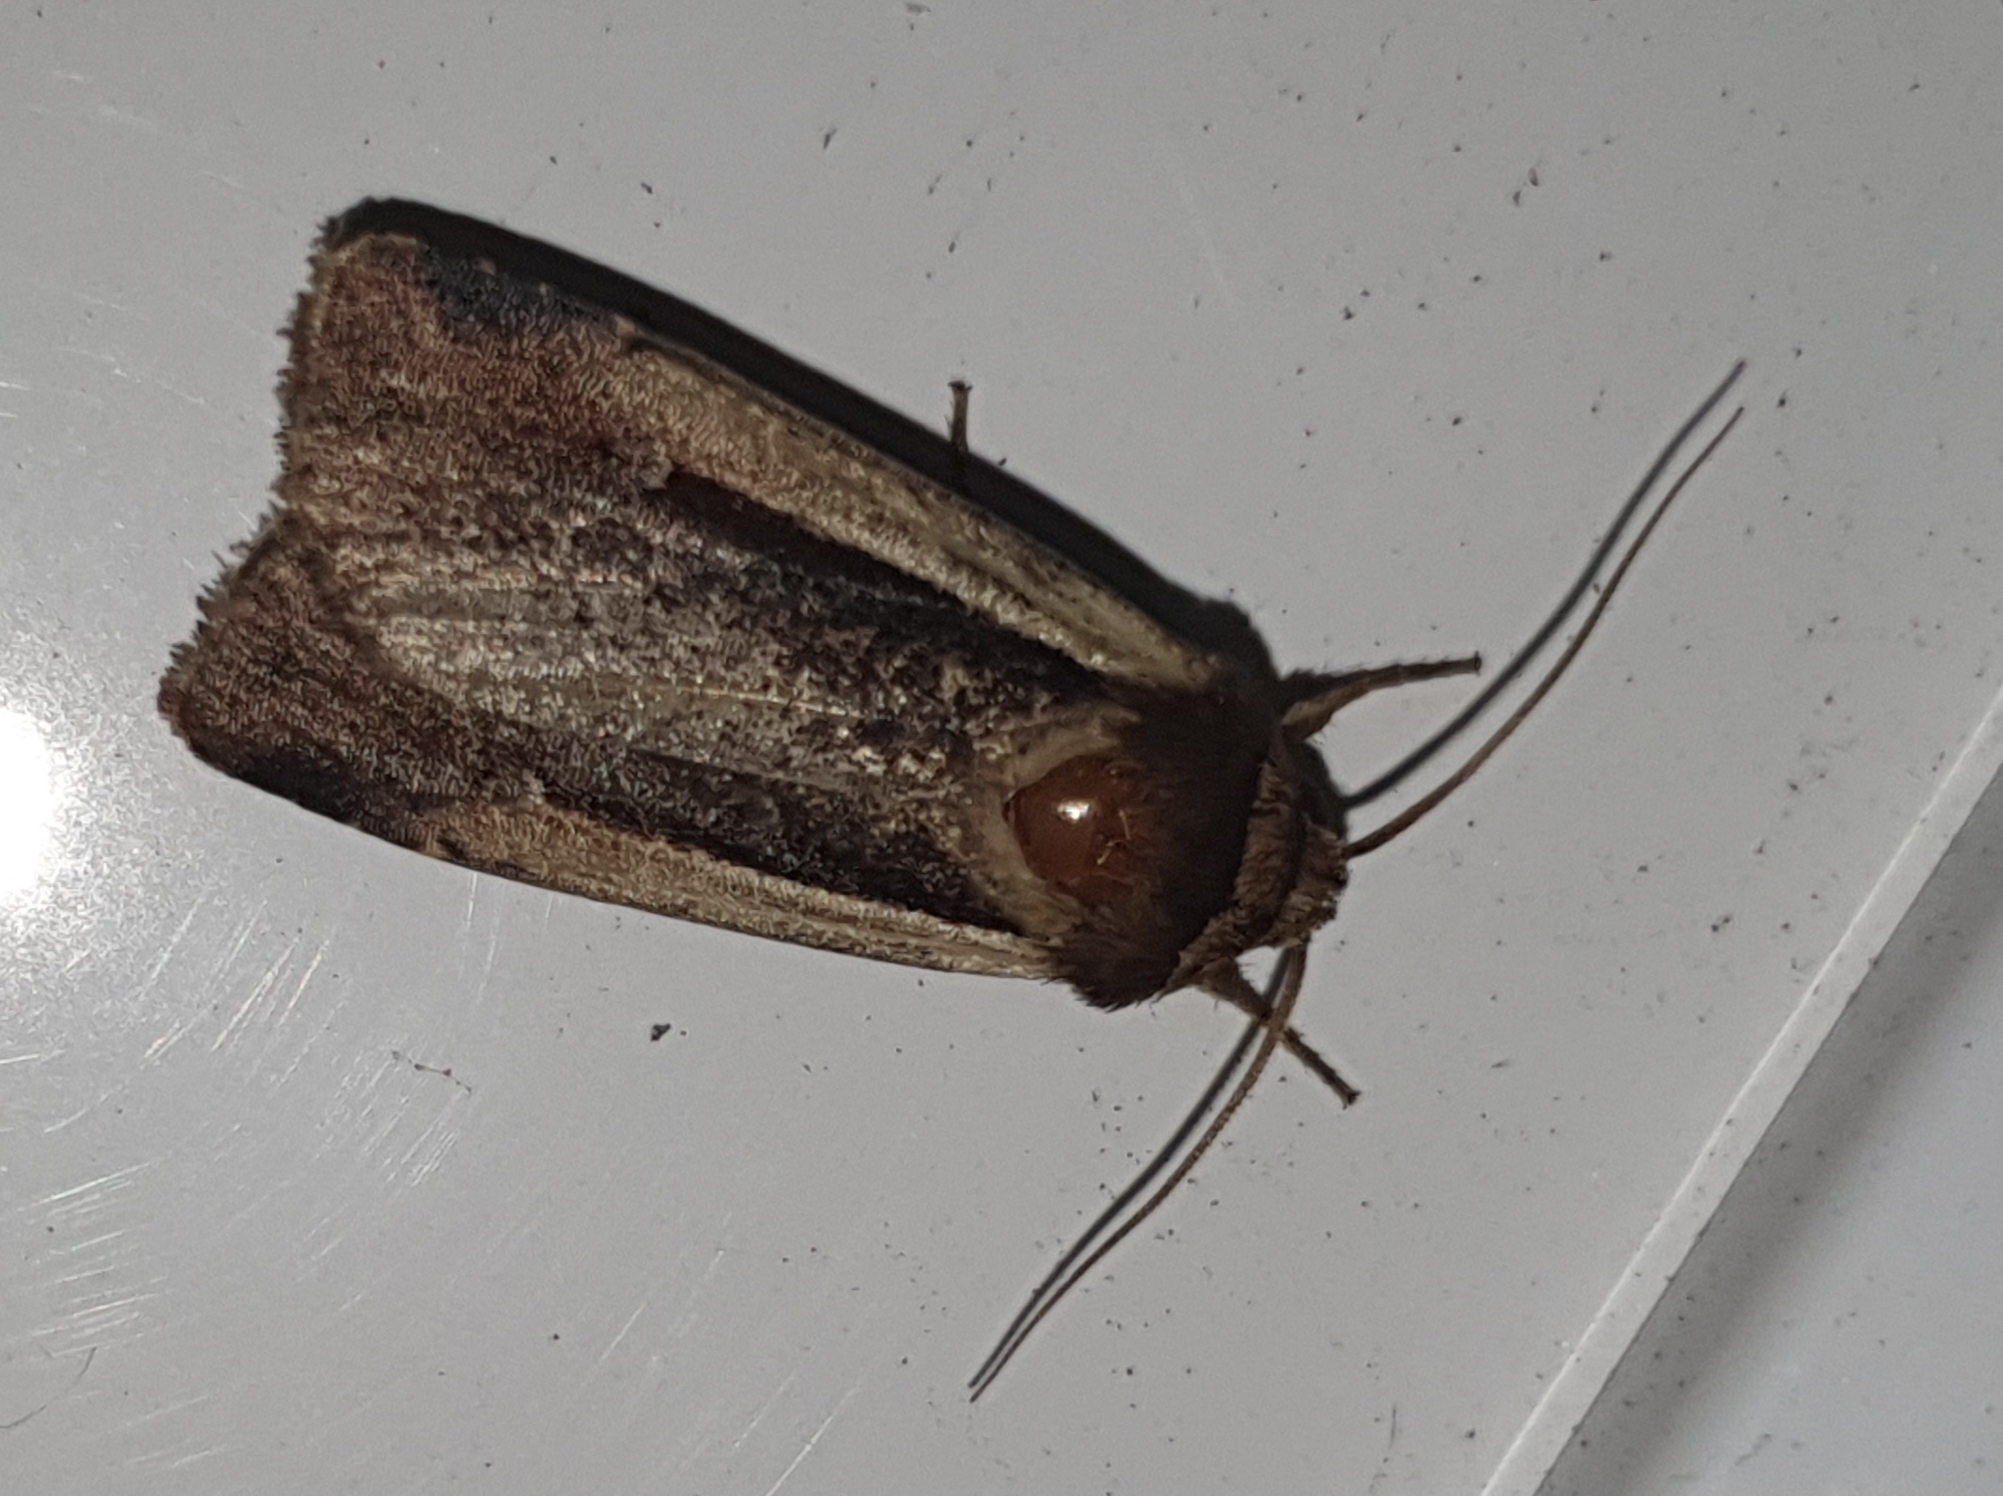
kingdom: Animalia
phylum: Arthropoda
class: Insecta
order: Lepidoptera
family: Noctuidae
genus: Ochropleura
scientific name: Ochropleura plecta
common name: Flame shoulder
